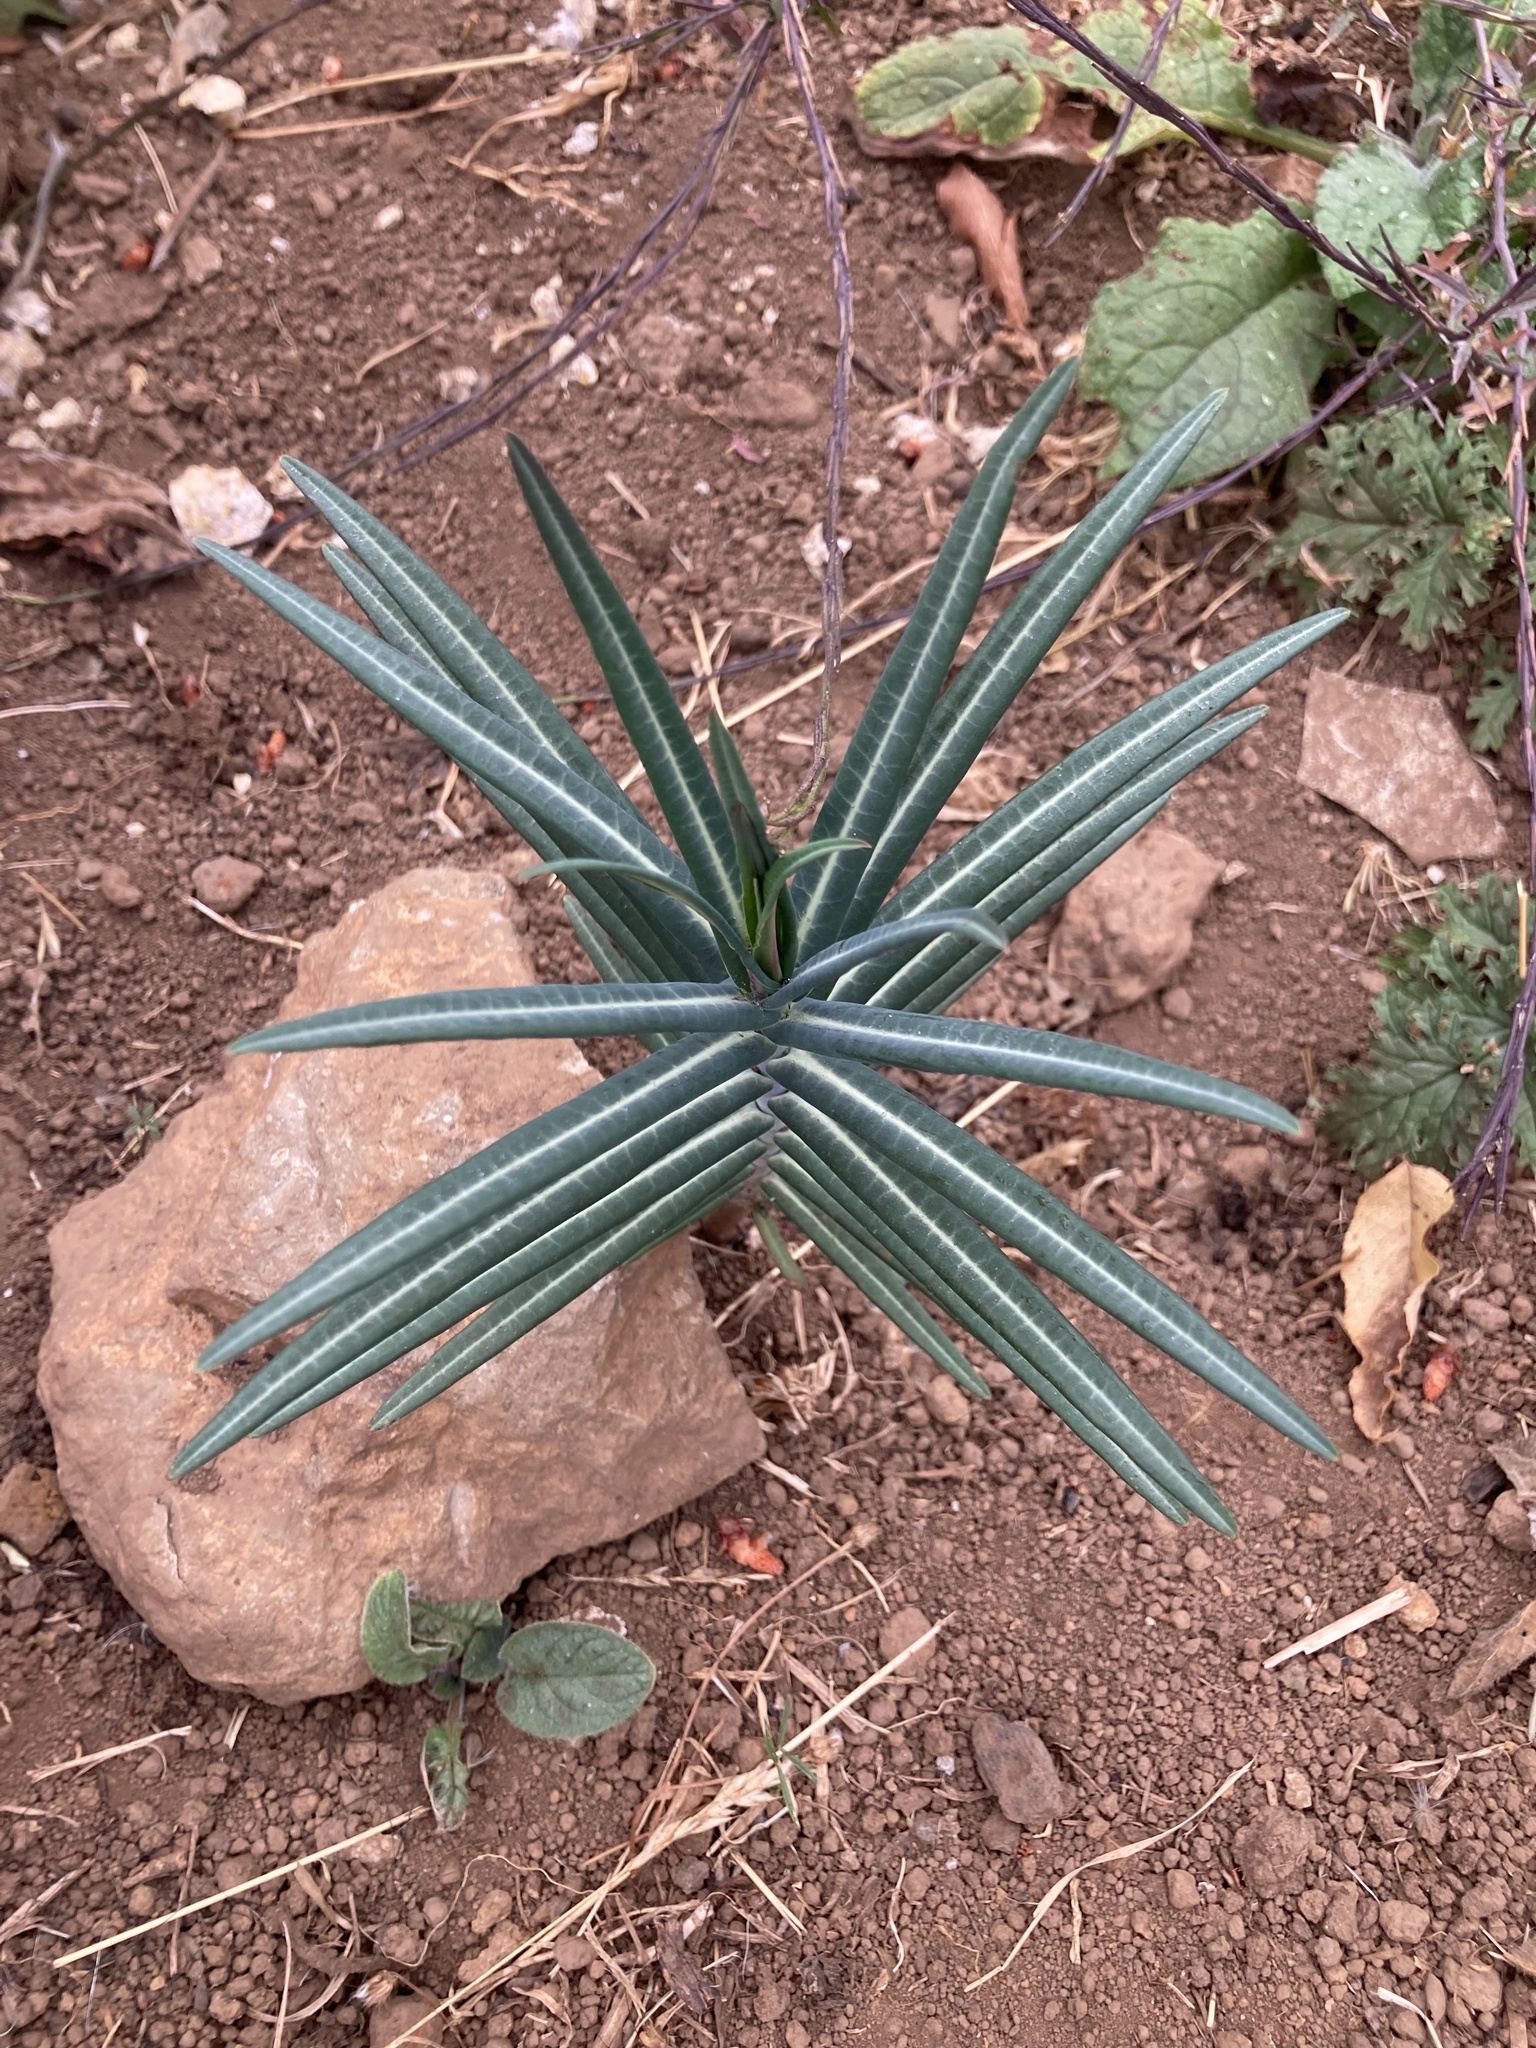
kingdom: Plantae
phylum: Tracheophyta
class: Magnoliopsida
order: Malpighiales
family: Euphorbiaceae
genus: Euphorbia
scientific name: Euphorbia lathyris
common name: Caper spurge
